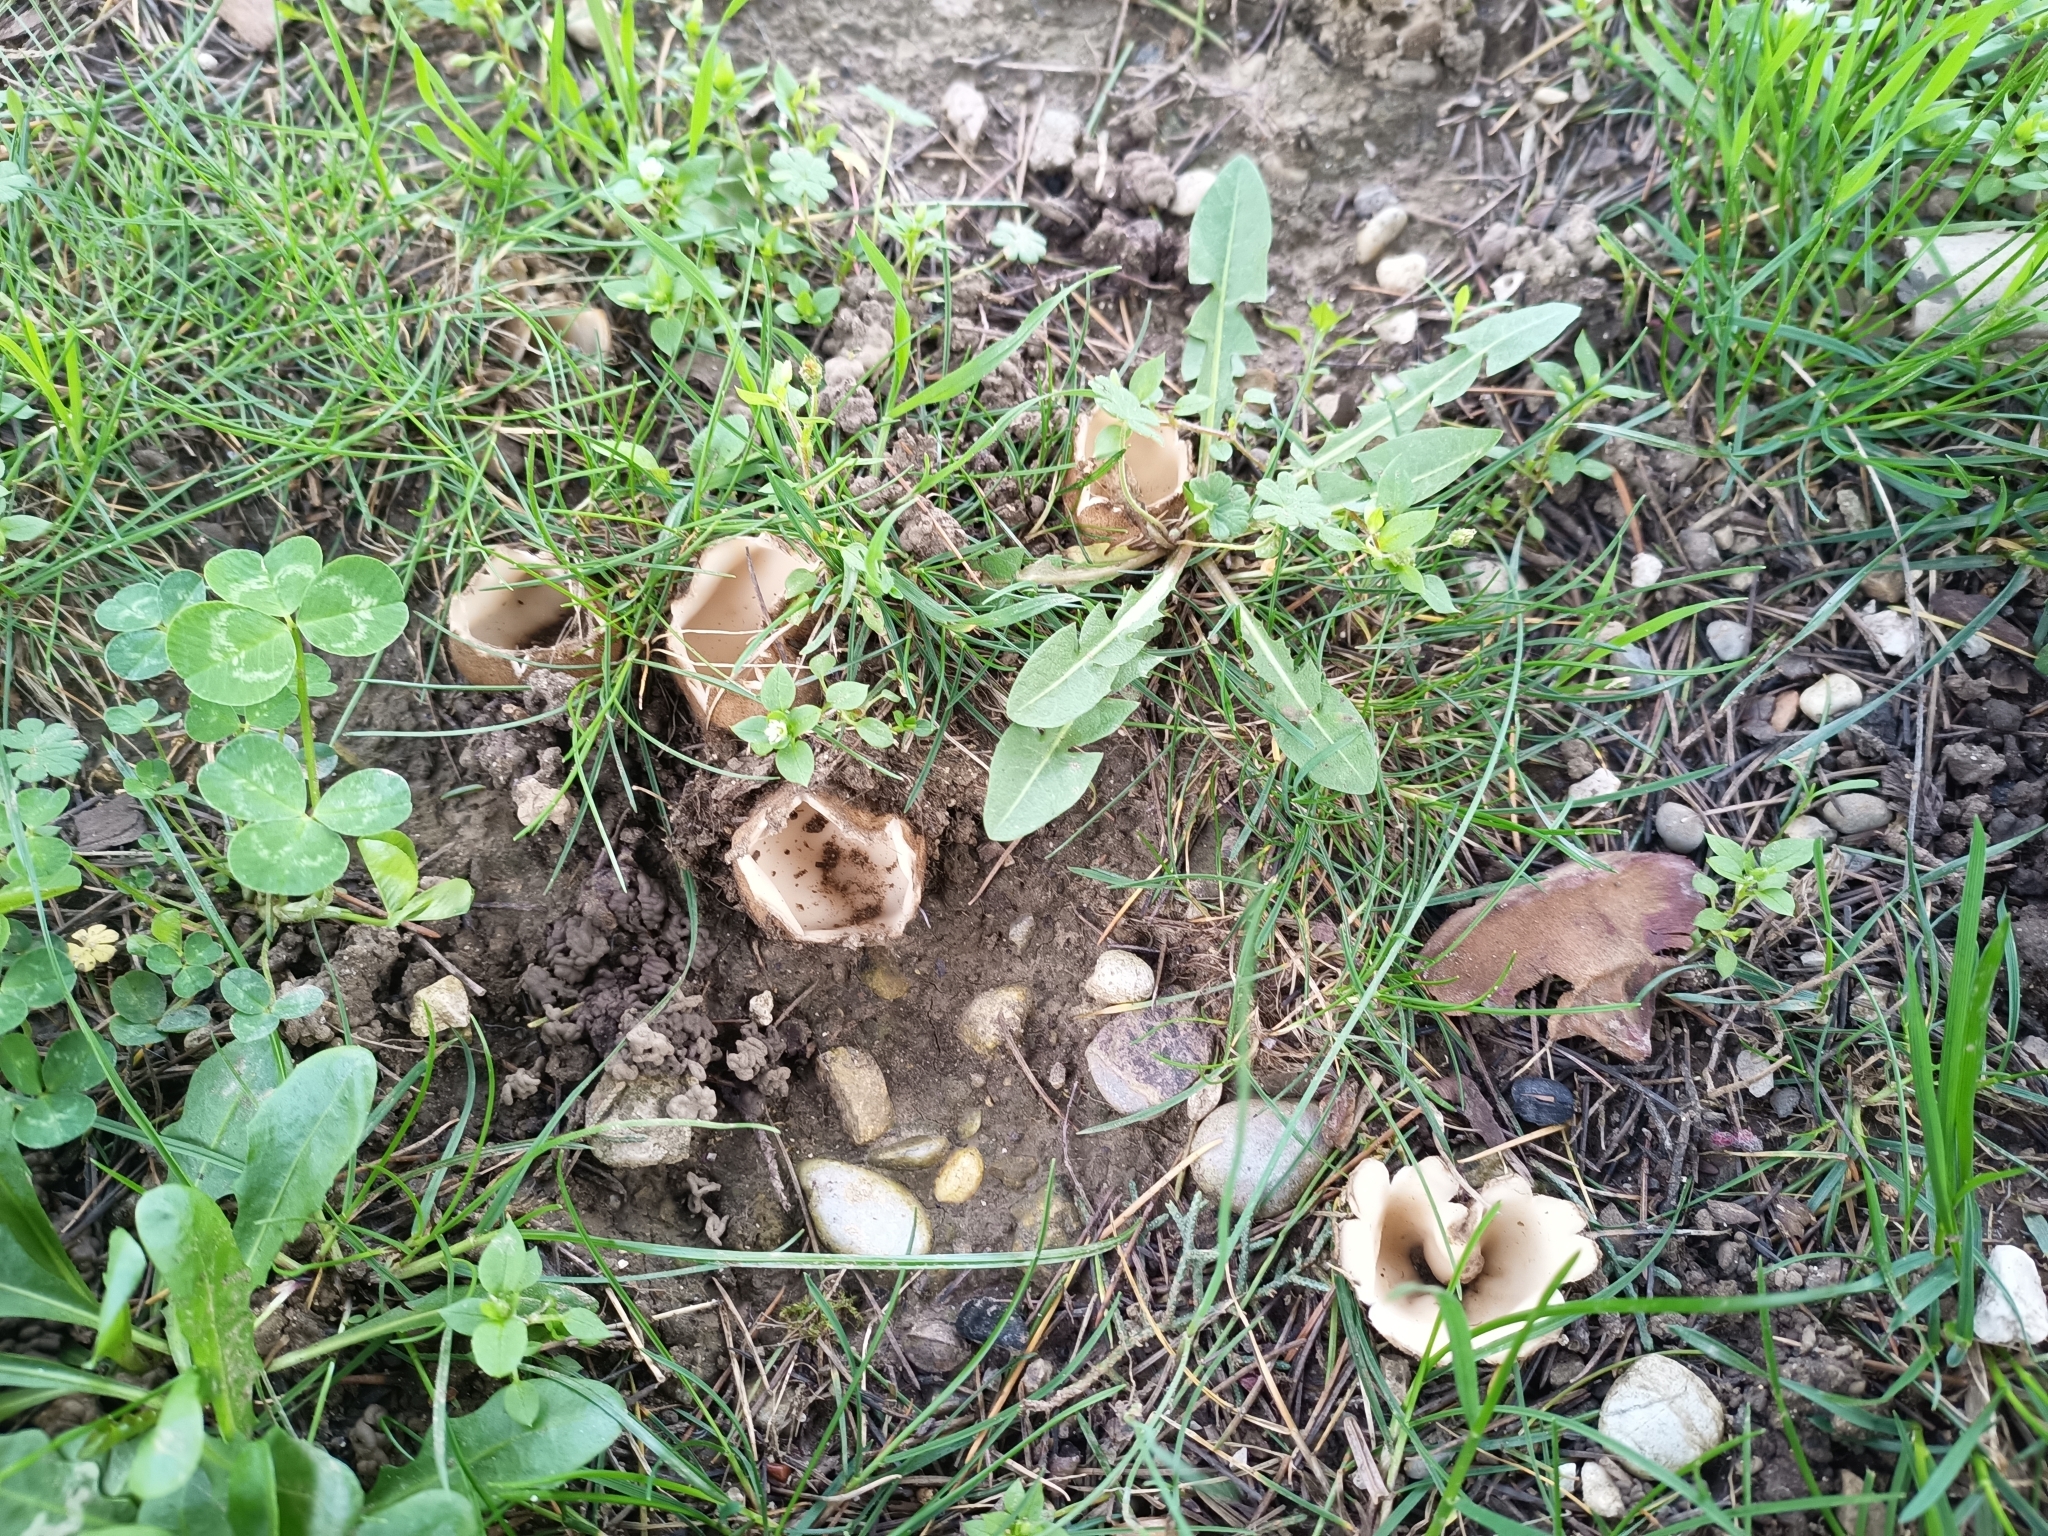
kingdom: Fungi
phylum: Ascomycota
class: Pezizomycetes
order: Pezizales
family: Pyronemataceae
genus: Geopora
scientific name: Geopora sumneriana
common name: Cedar cup
